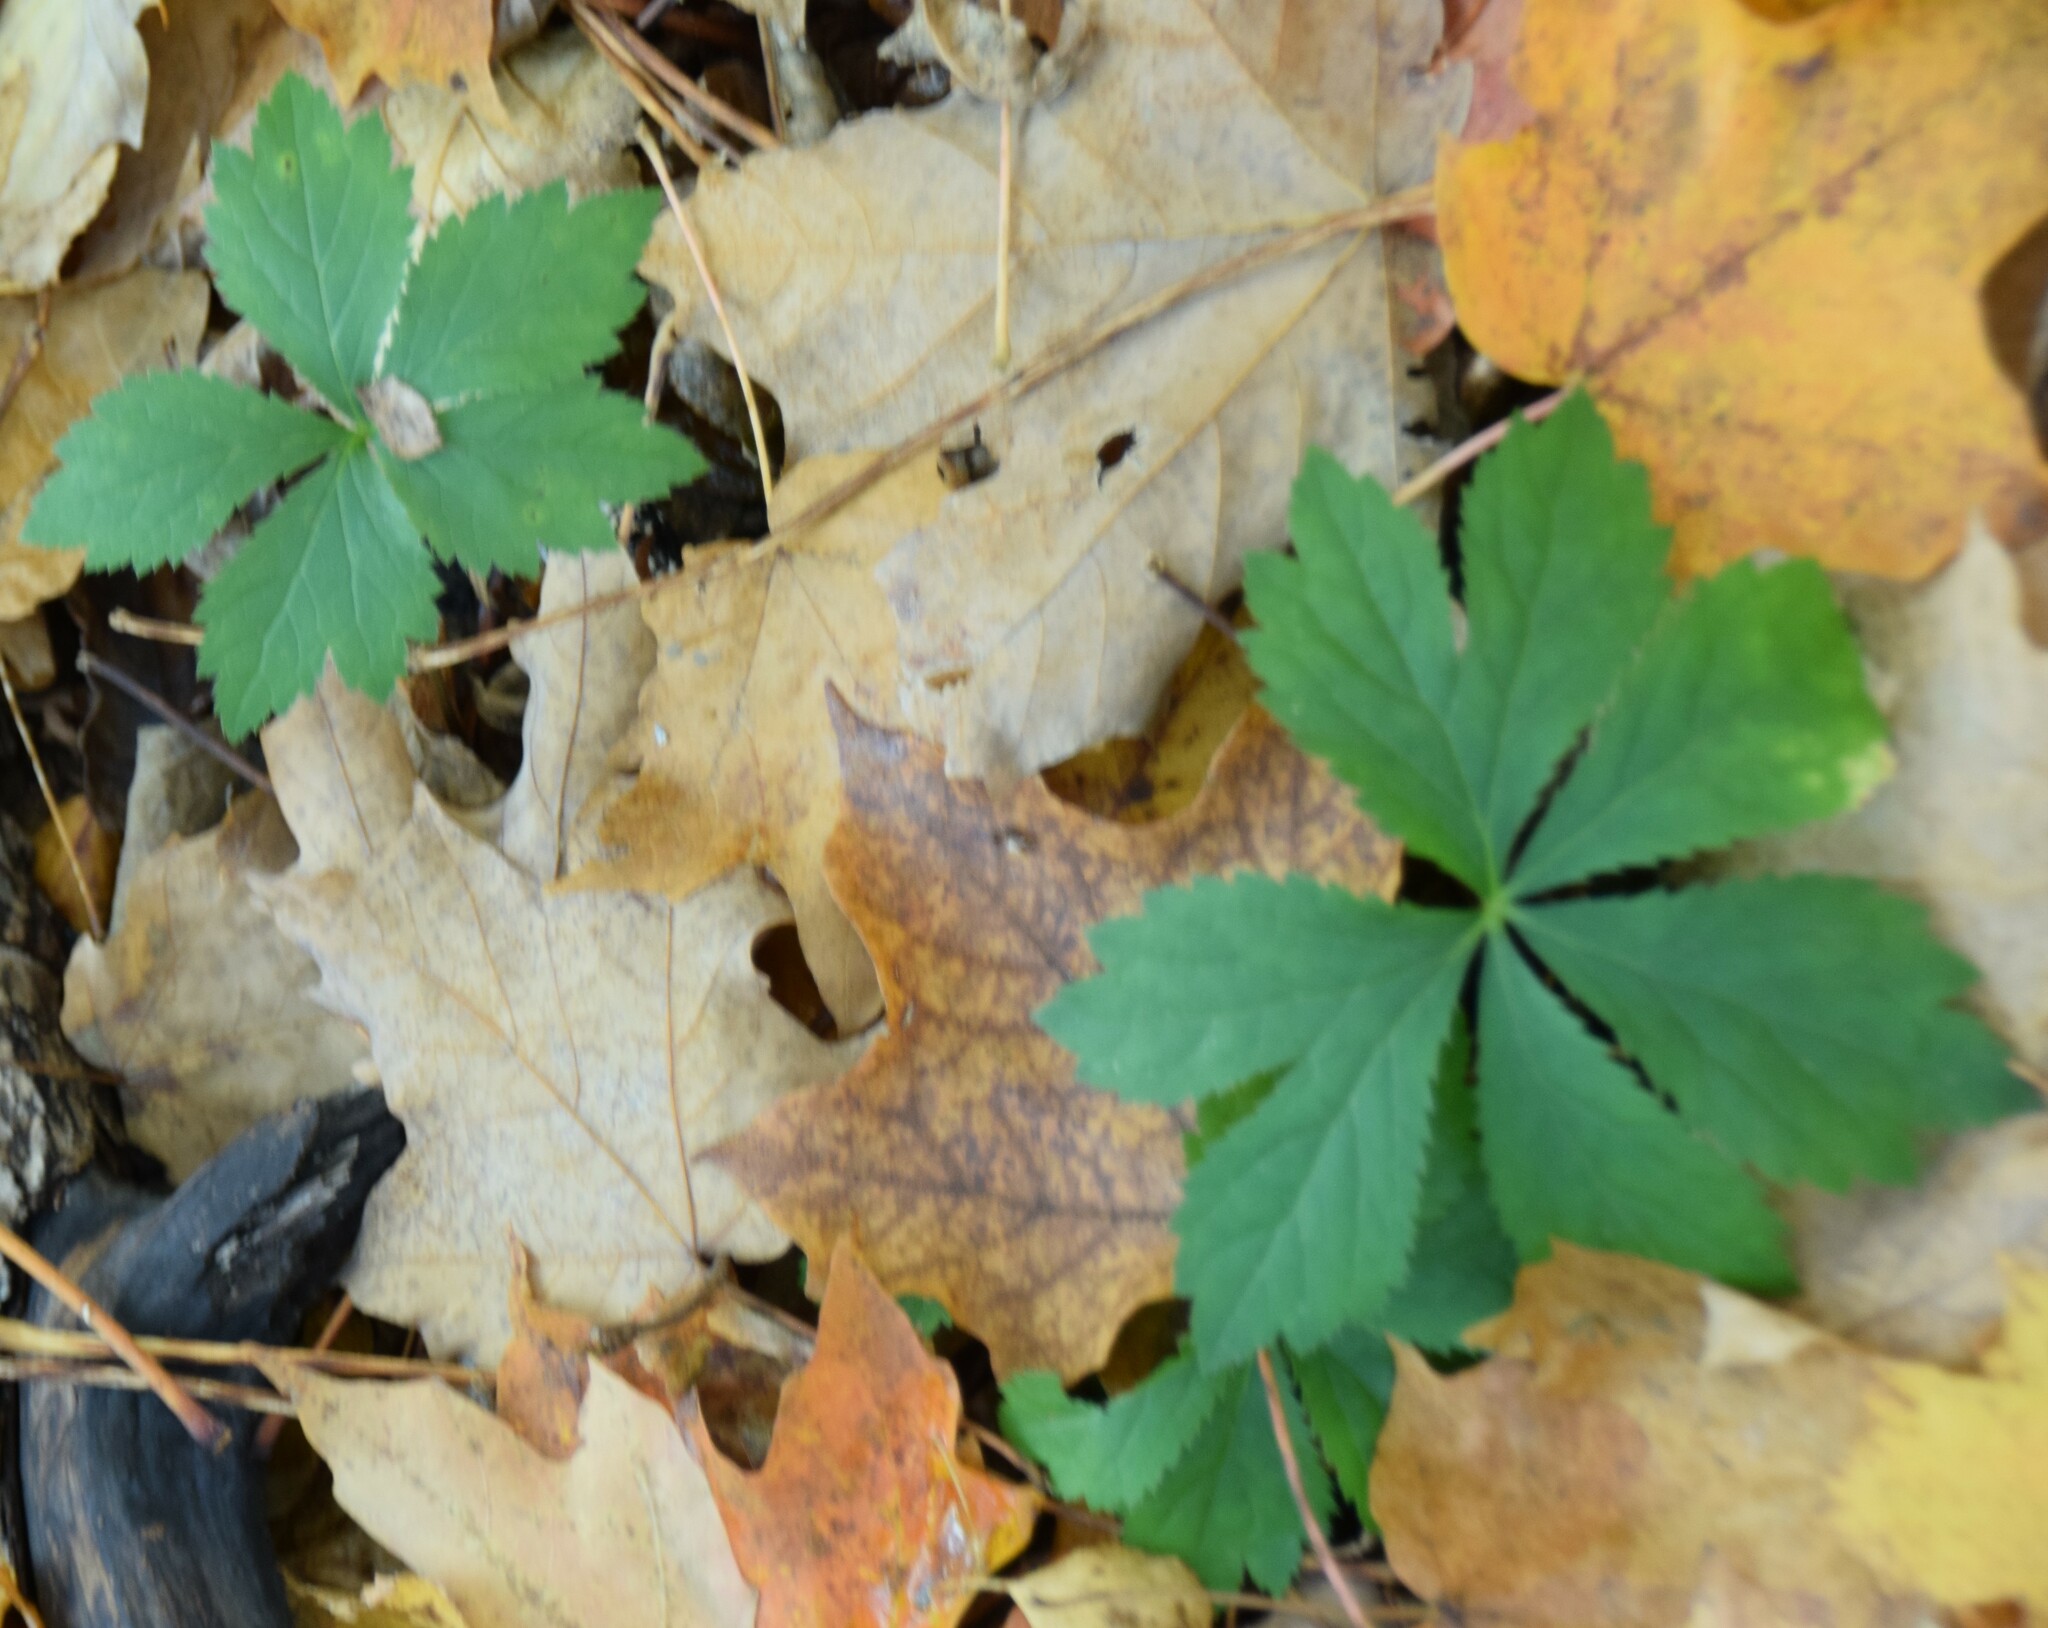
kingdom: Plantae
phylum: Tracheophyta
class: Magnoliopsida
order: Apiales
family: Apiaceae
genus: Sanicula
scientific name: Sanicula marilandica
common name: Black snakeroot
